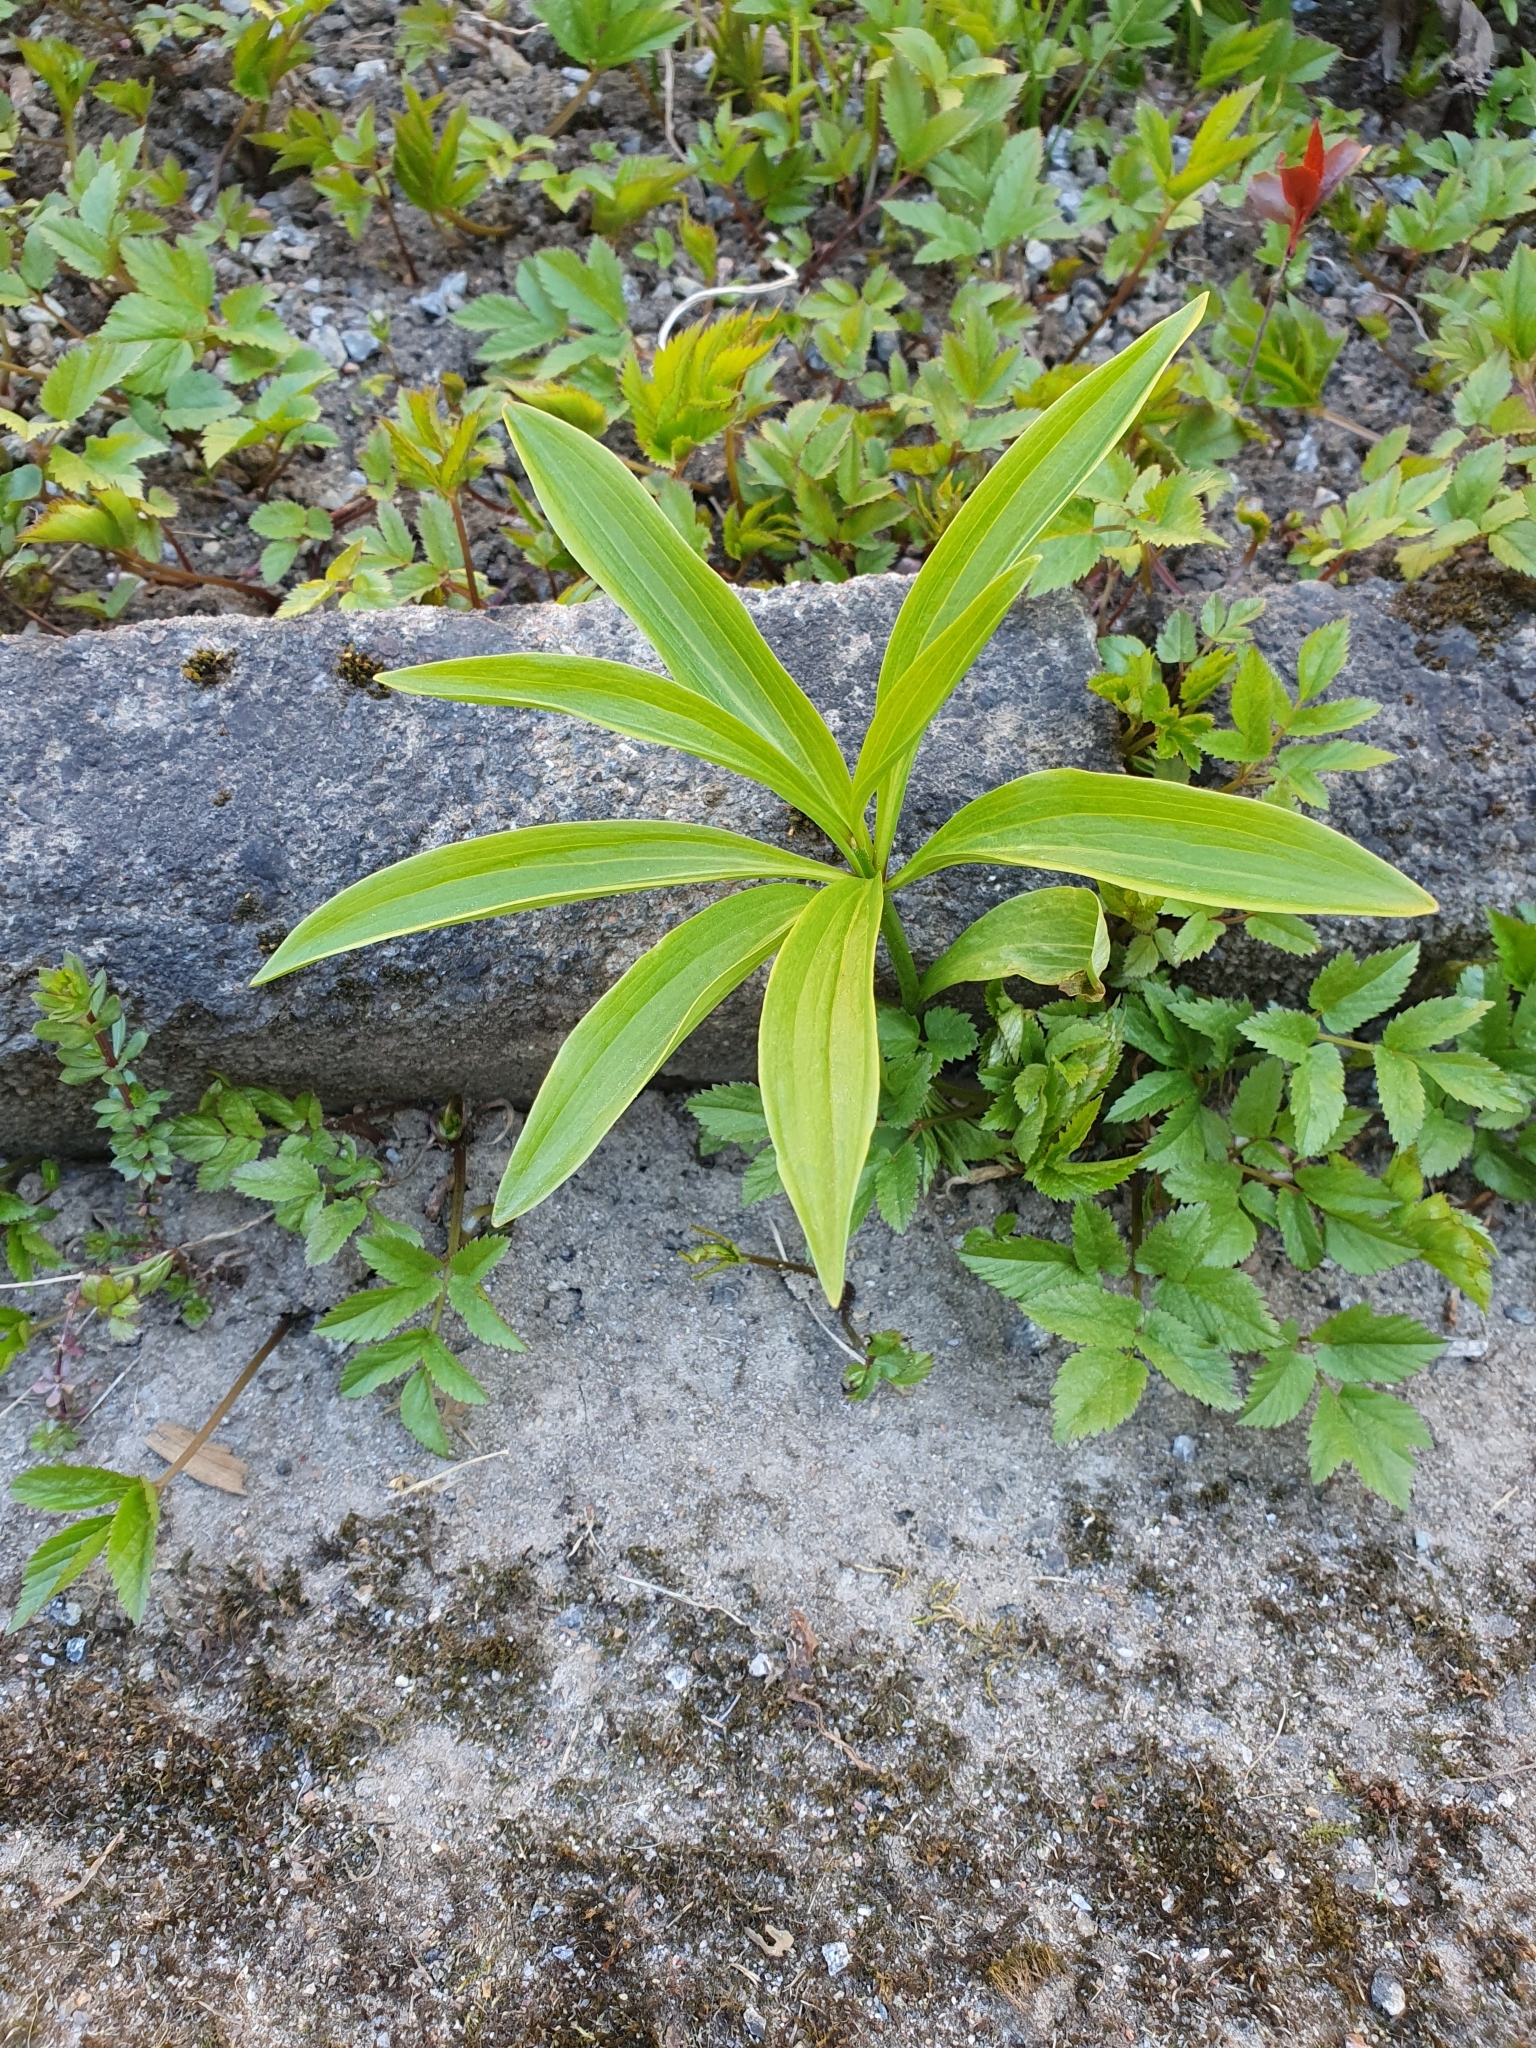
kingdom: Plantae
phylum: Tracheophyta
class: Liliopsida
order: Liliales
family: Liliaceae
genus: Lilium
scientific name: Lilium martagon
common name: Martagon lily
